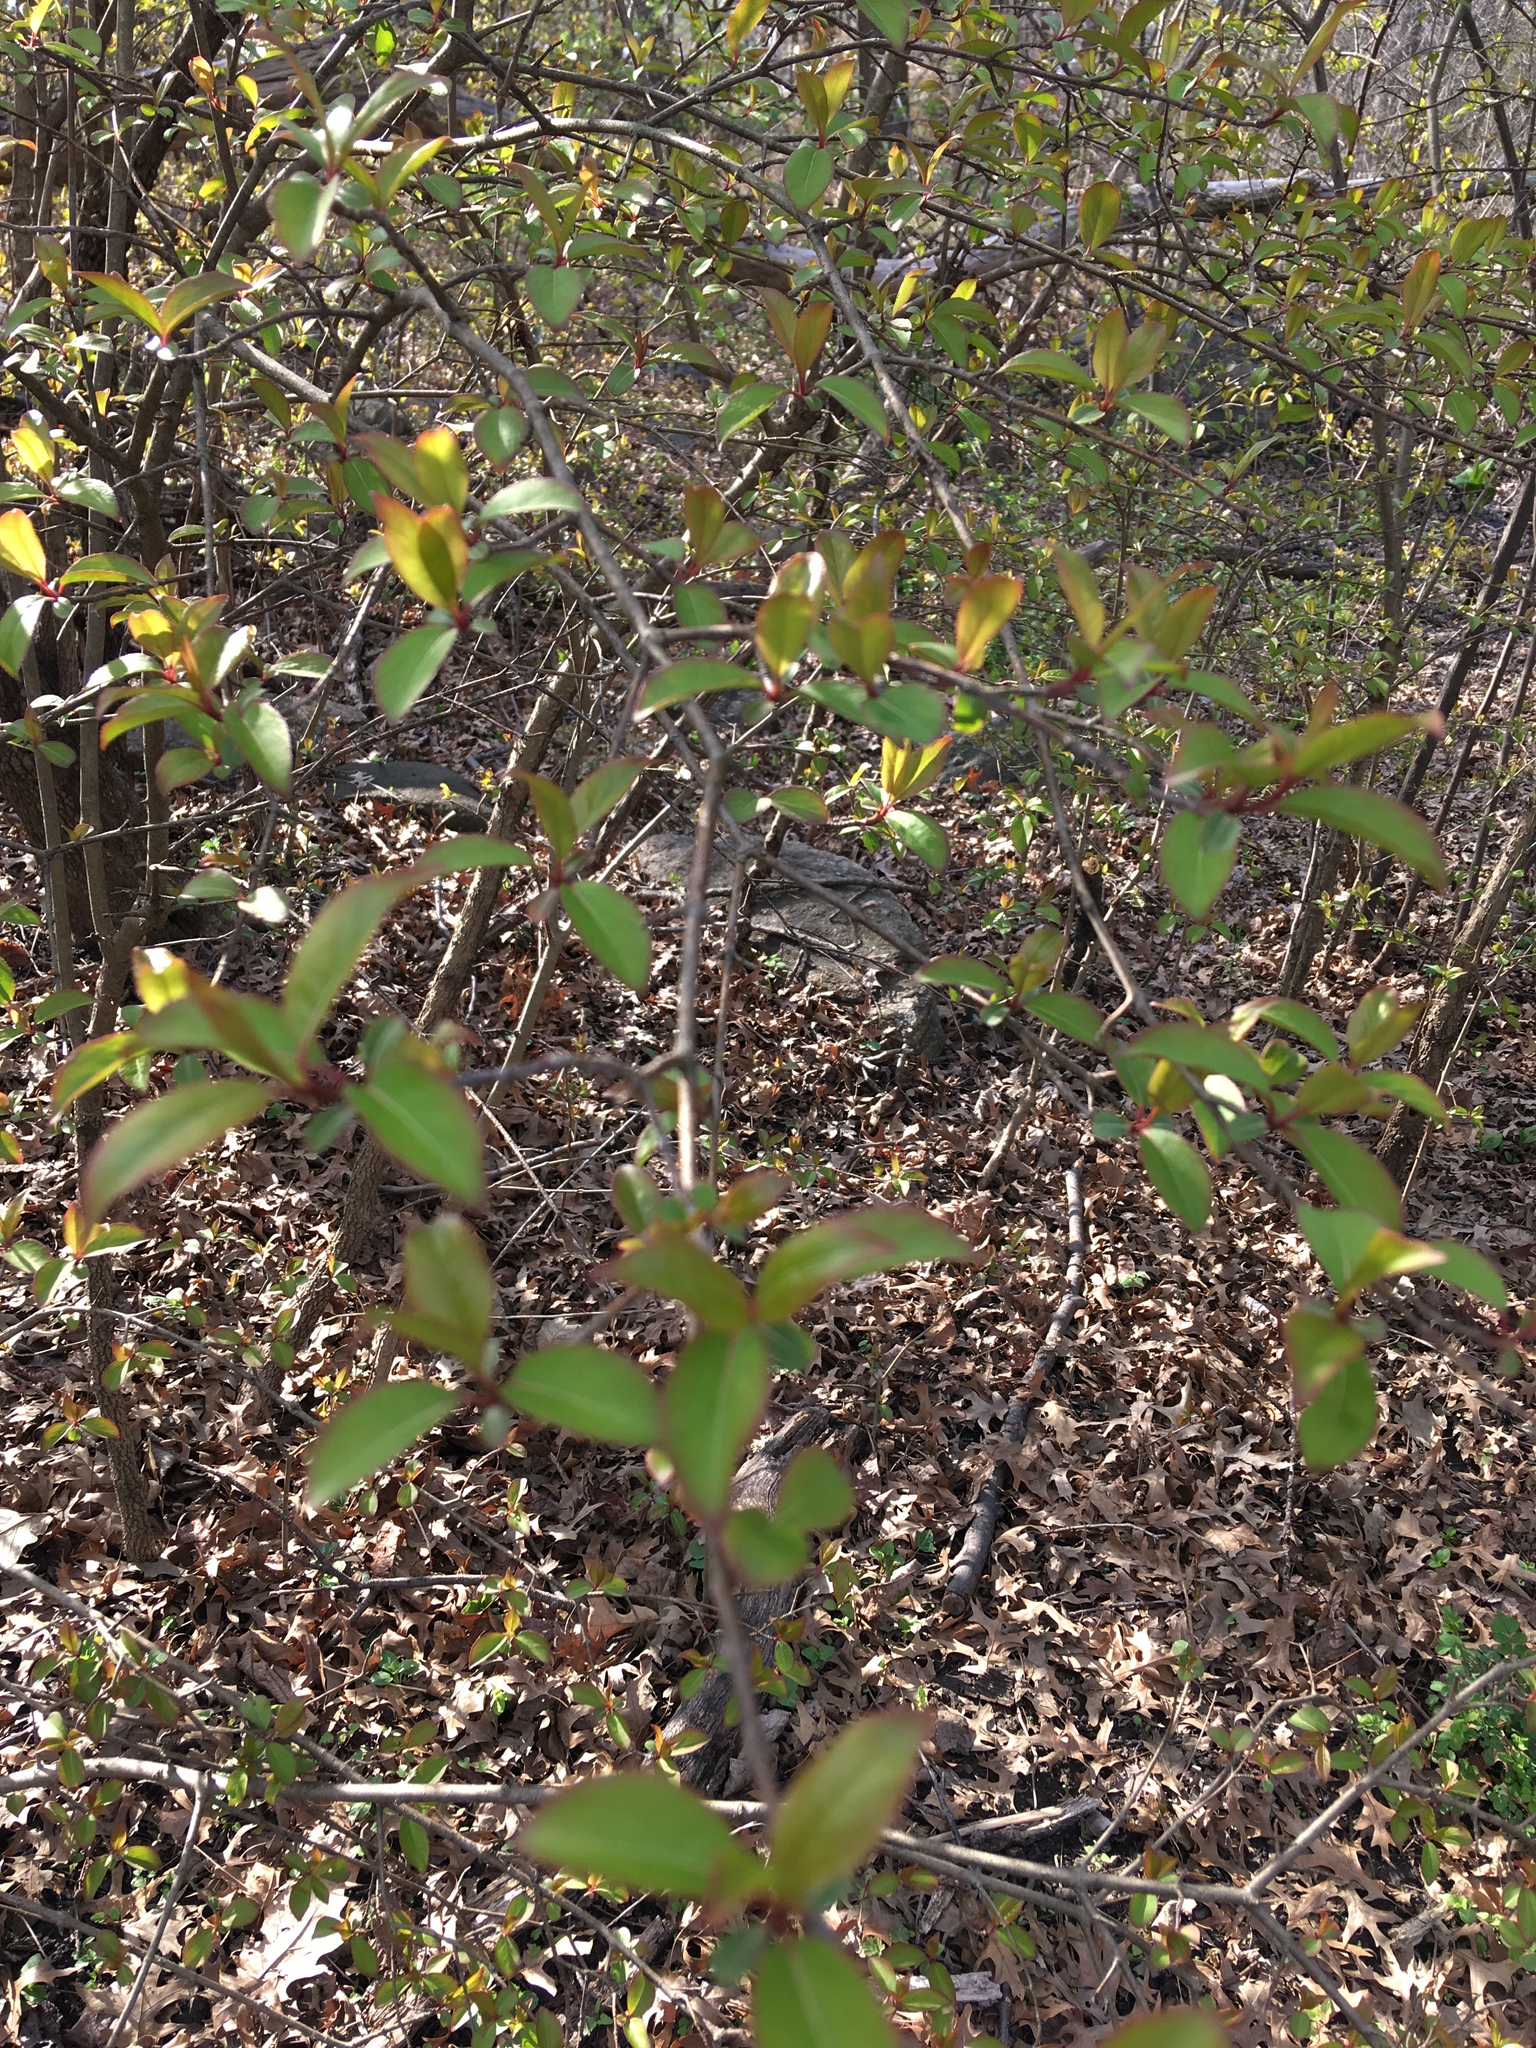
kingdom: Plantae
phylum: Tracheophyta
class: Magnoliopsida
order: Dipsacales
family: Viburnaceae
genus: Viburnum
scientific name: Viburnum prunifolium
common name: Black haw
